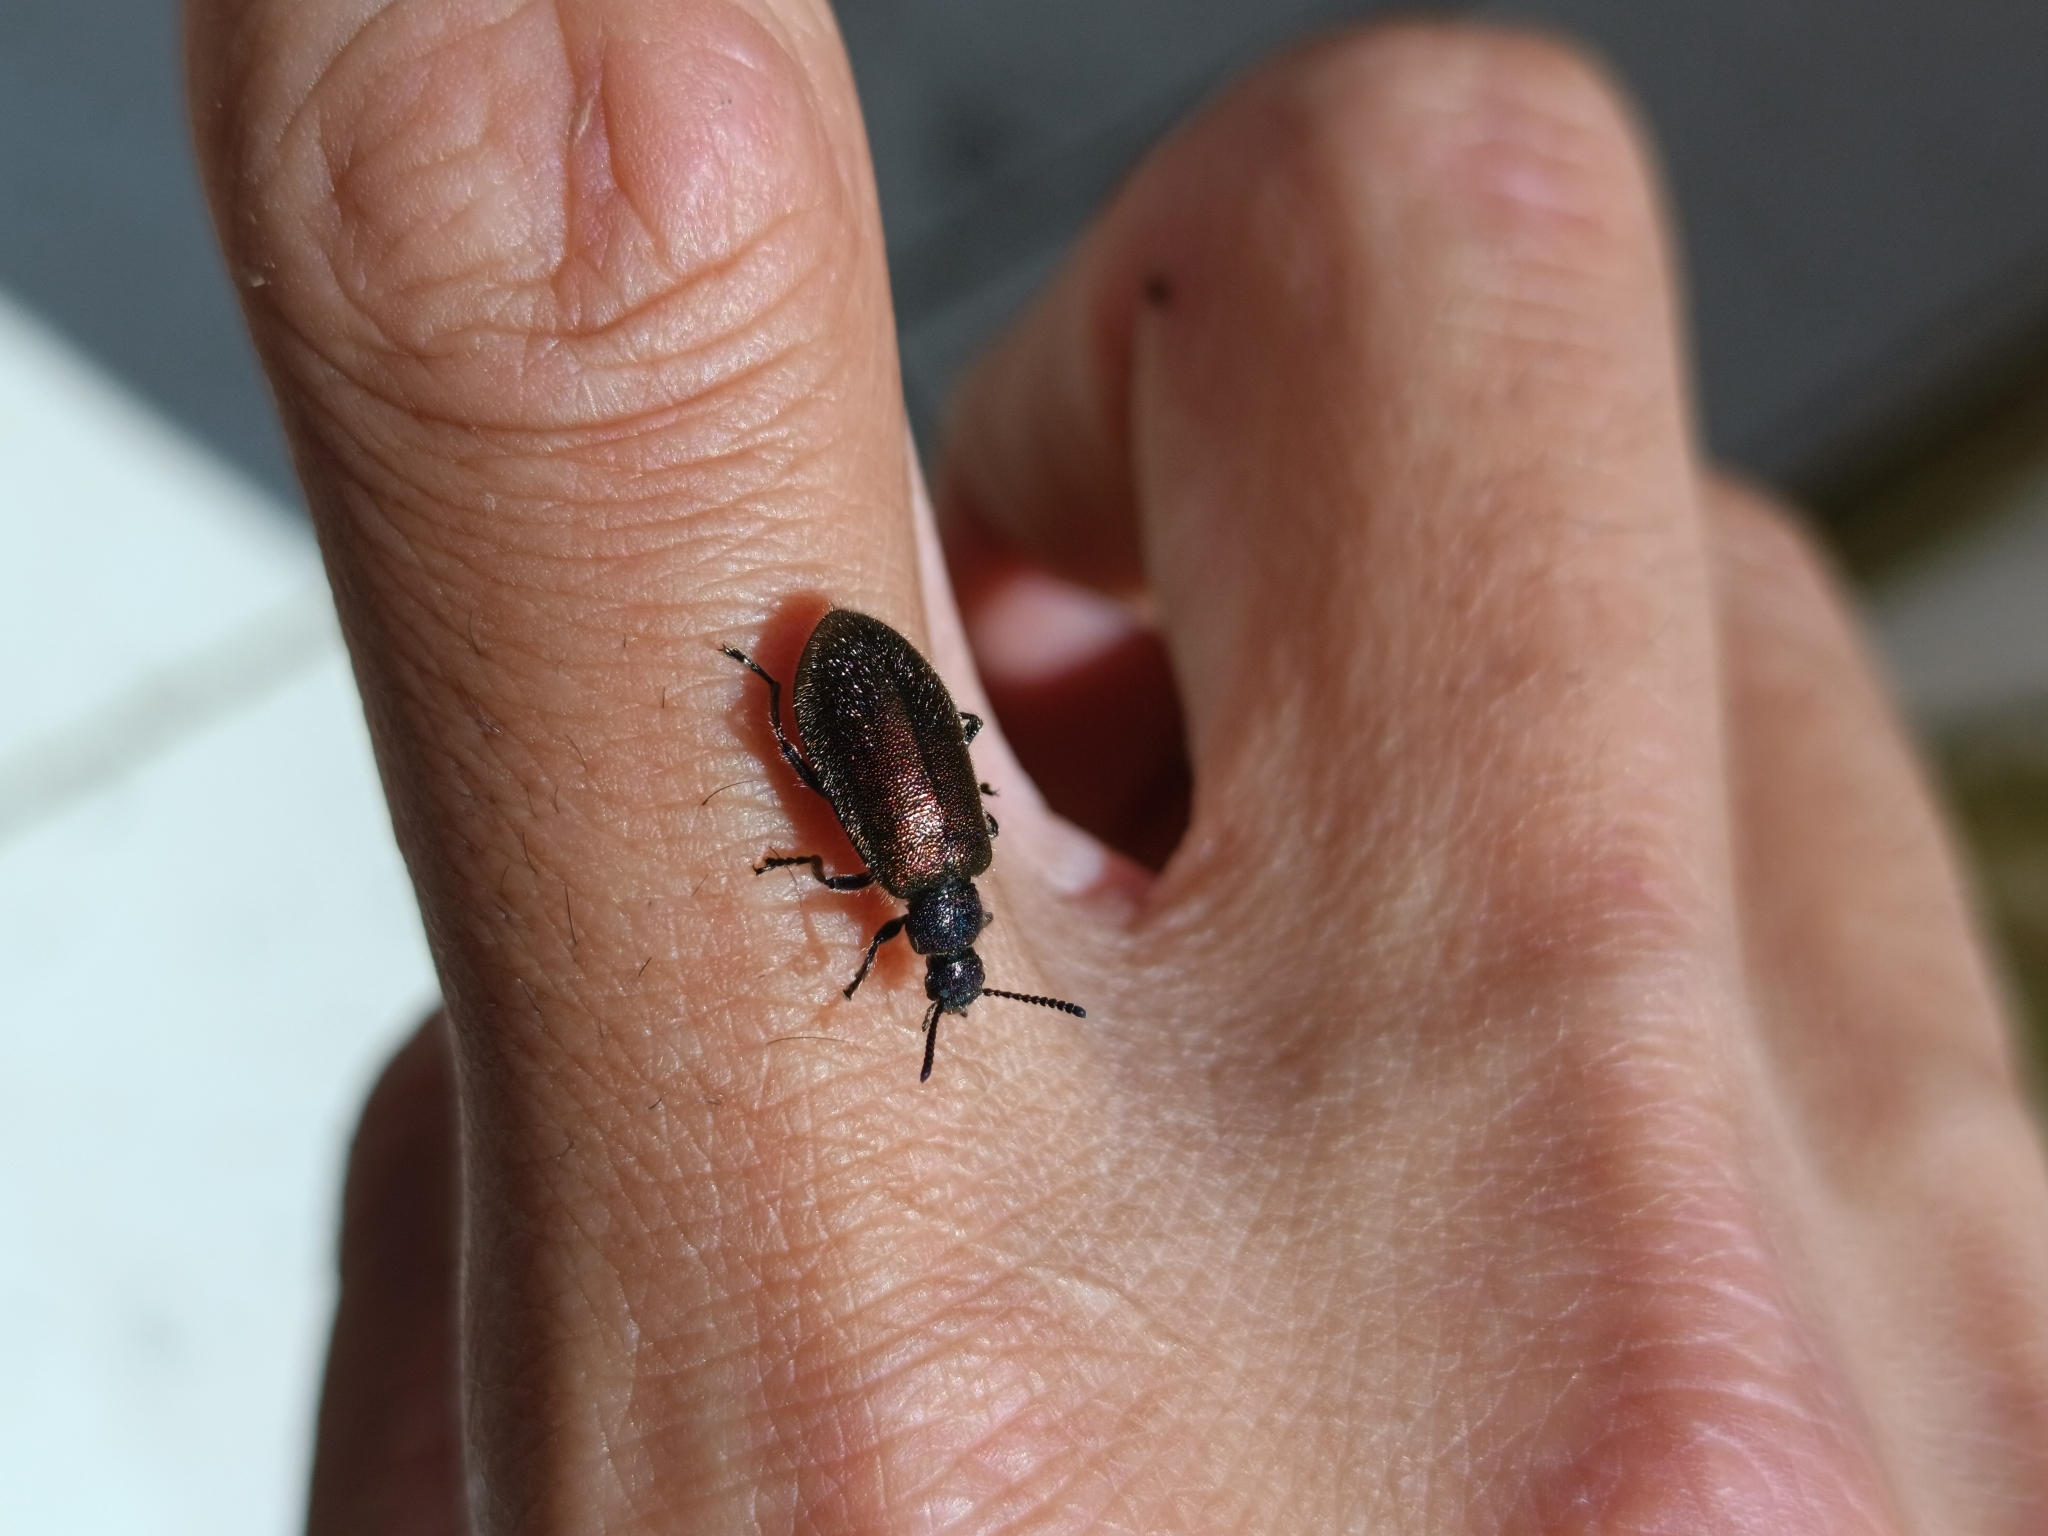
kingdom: Animalia
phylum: Arthropoda
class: Insecta
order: Coleoptera
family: Tenebrionidae
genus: Lagria
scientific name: Lagria villosa
